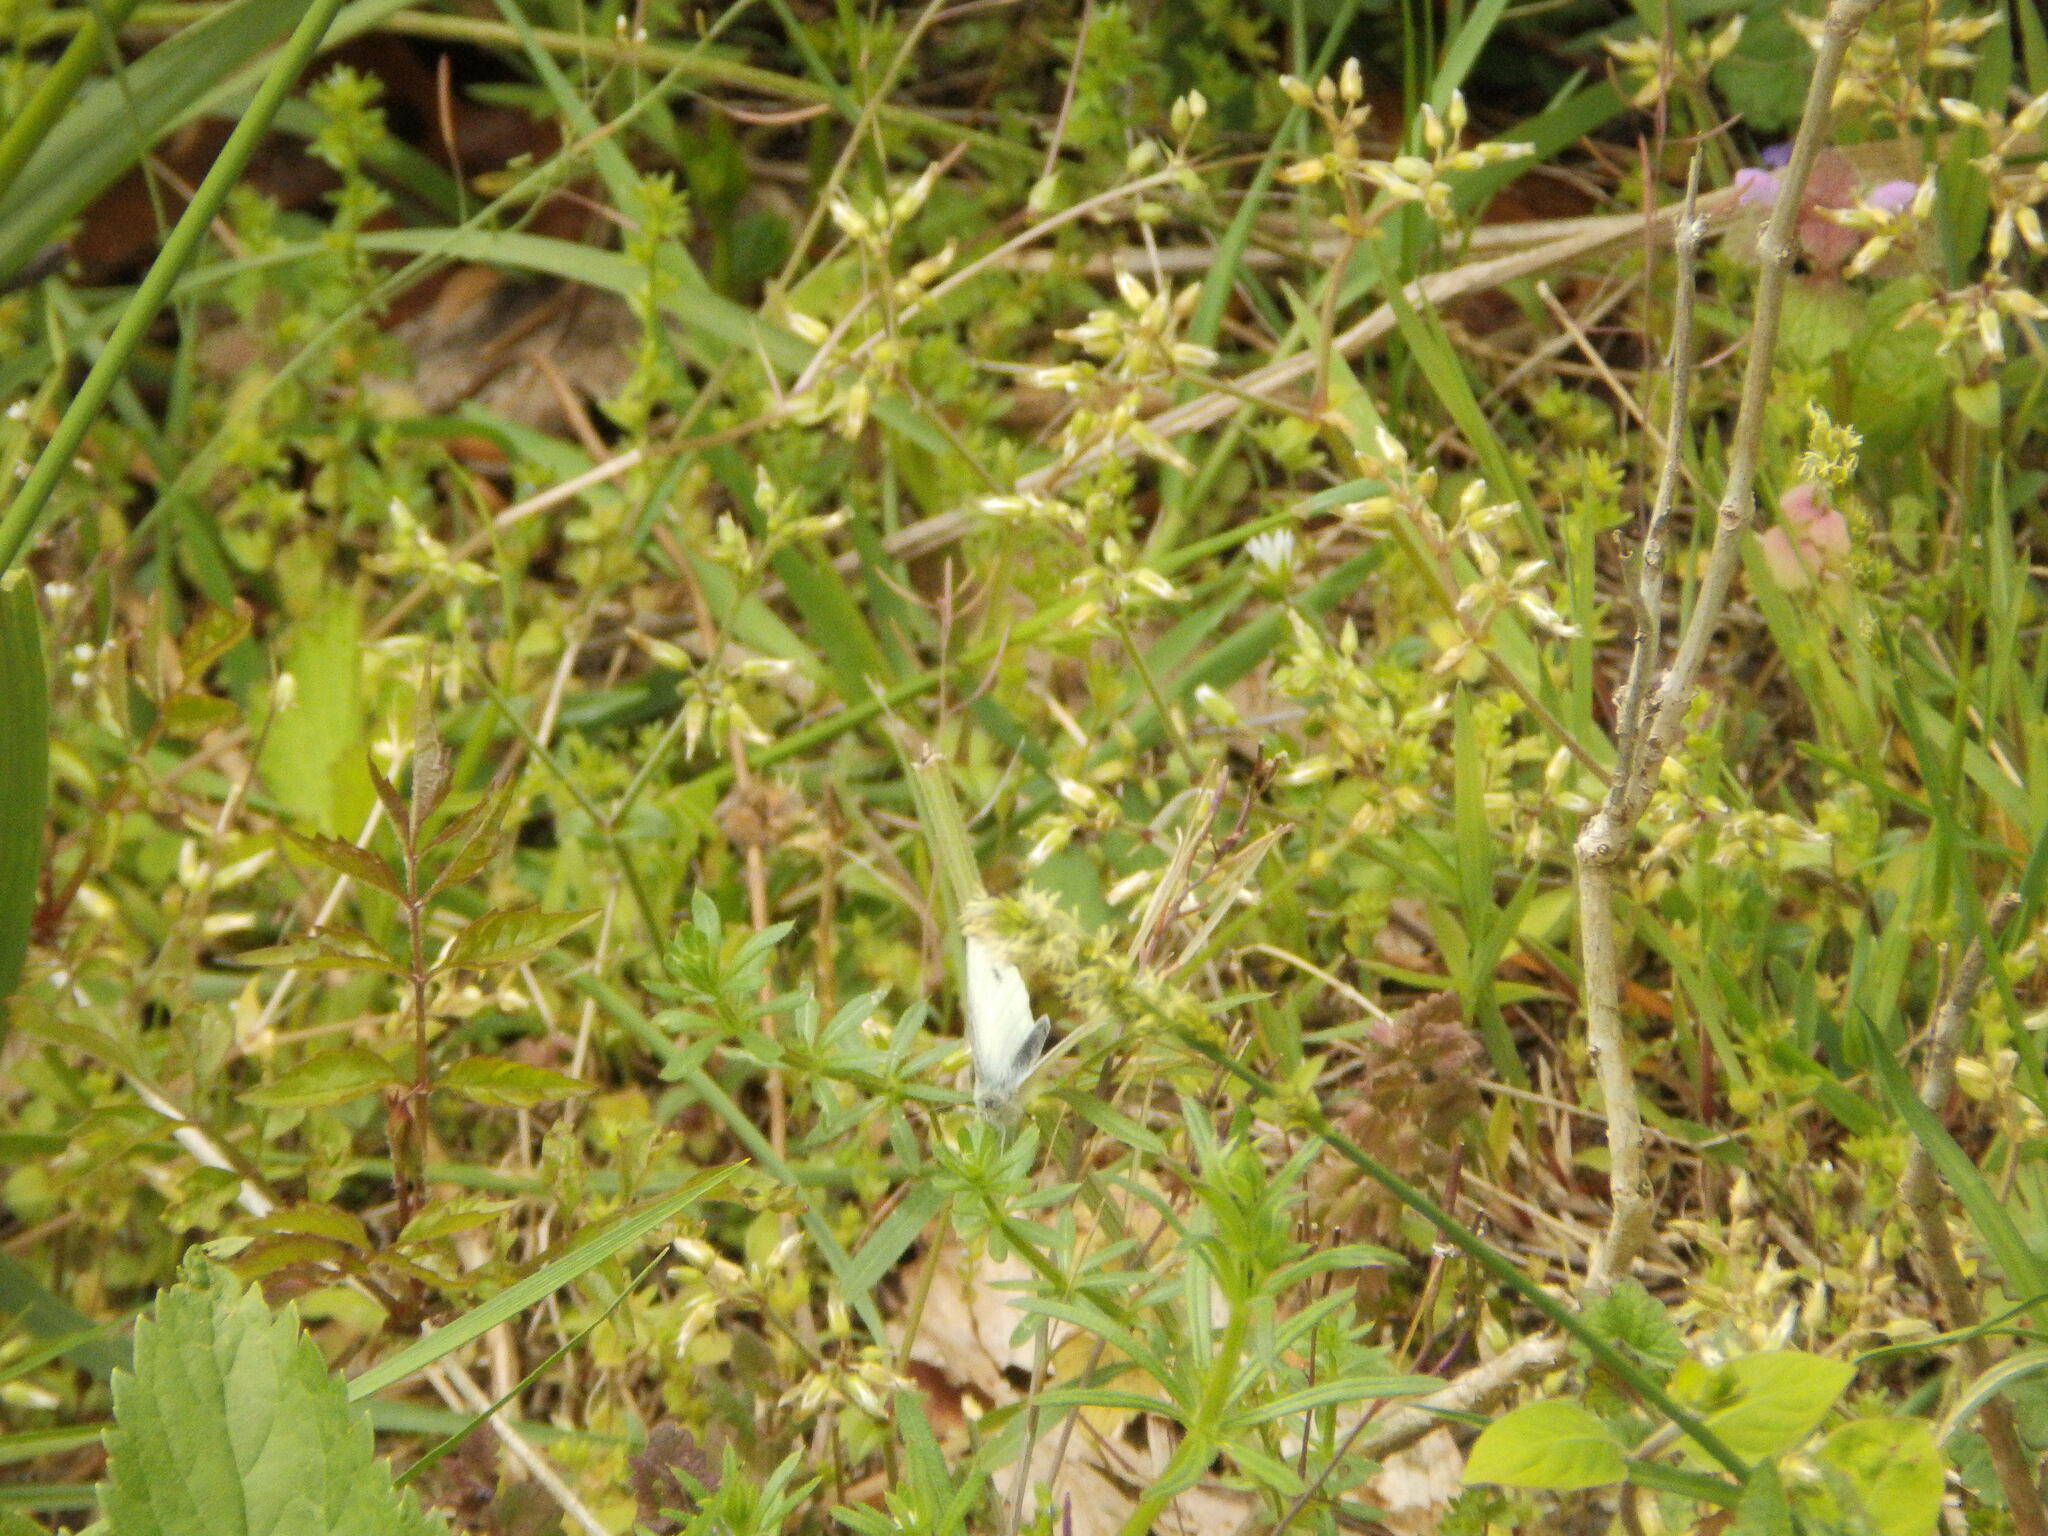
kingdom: Animalia
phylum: Arthropoda
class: Insecta
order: Lepidoptera
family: Pieridae
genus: Pieris
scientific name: Pieris rapae
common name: Small white
